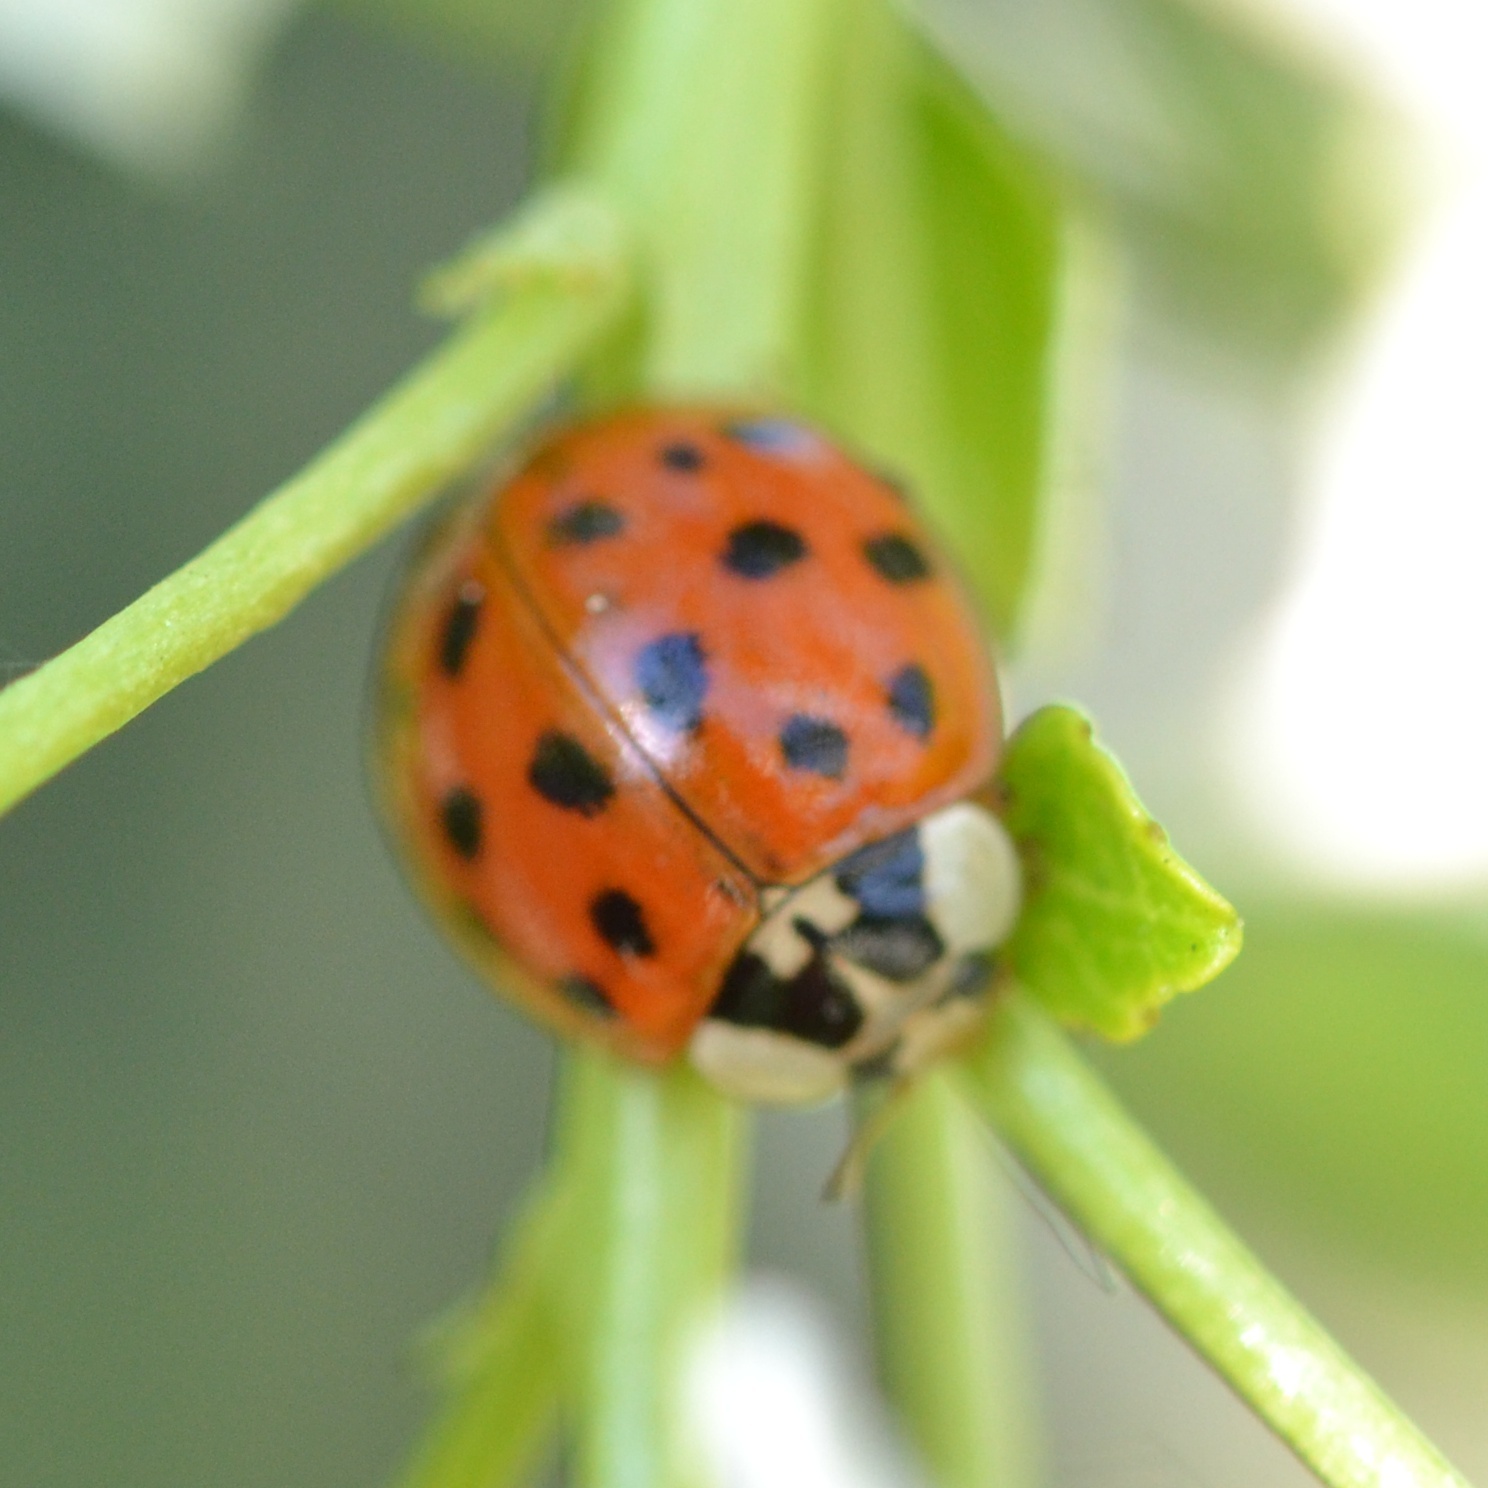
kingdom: Animalia
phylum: Arthropoda
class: Insecta
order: Coleoptera
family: Coccinellidae
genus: Harmonia
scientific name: Harmonia axyridis
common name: Harlequin ladybird
